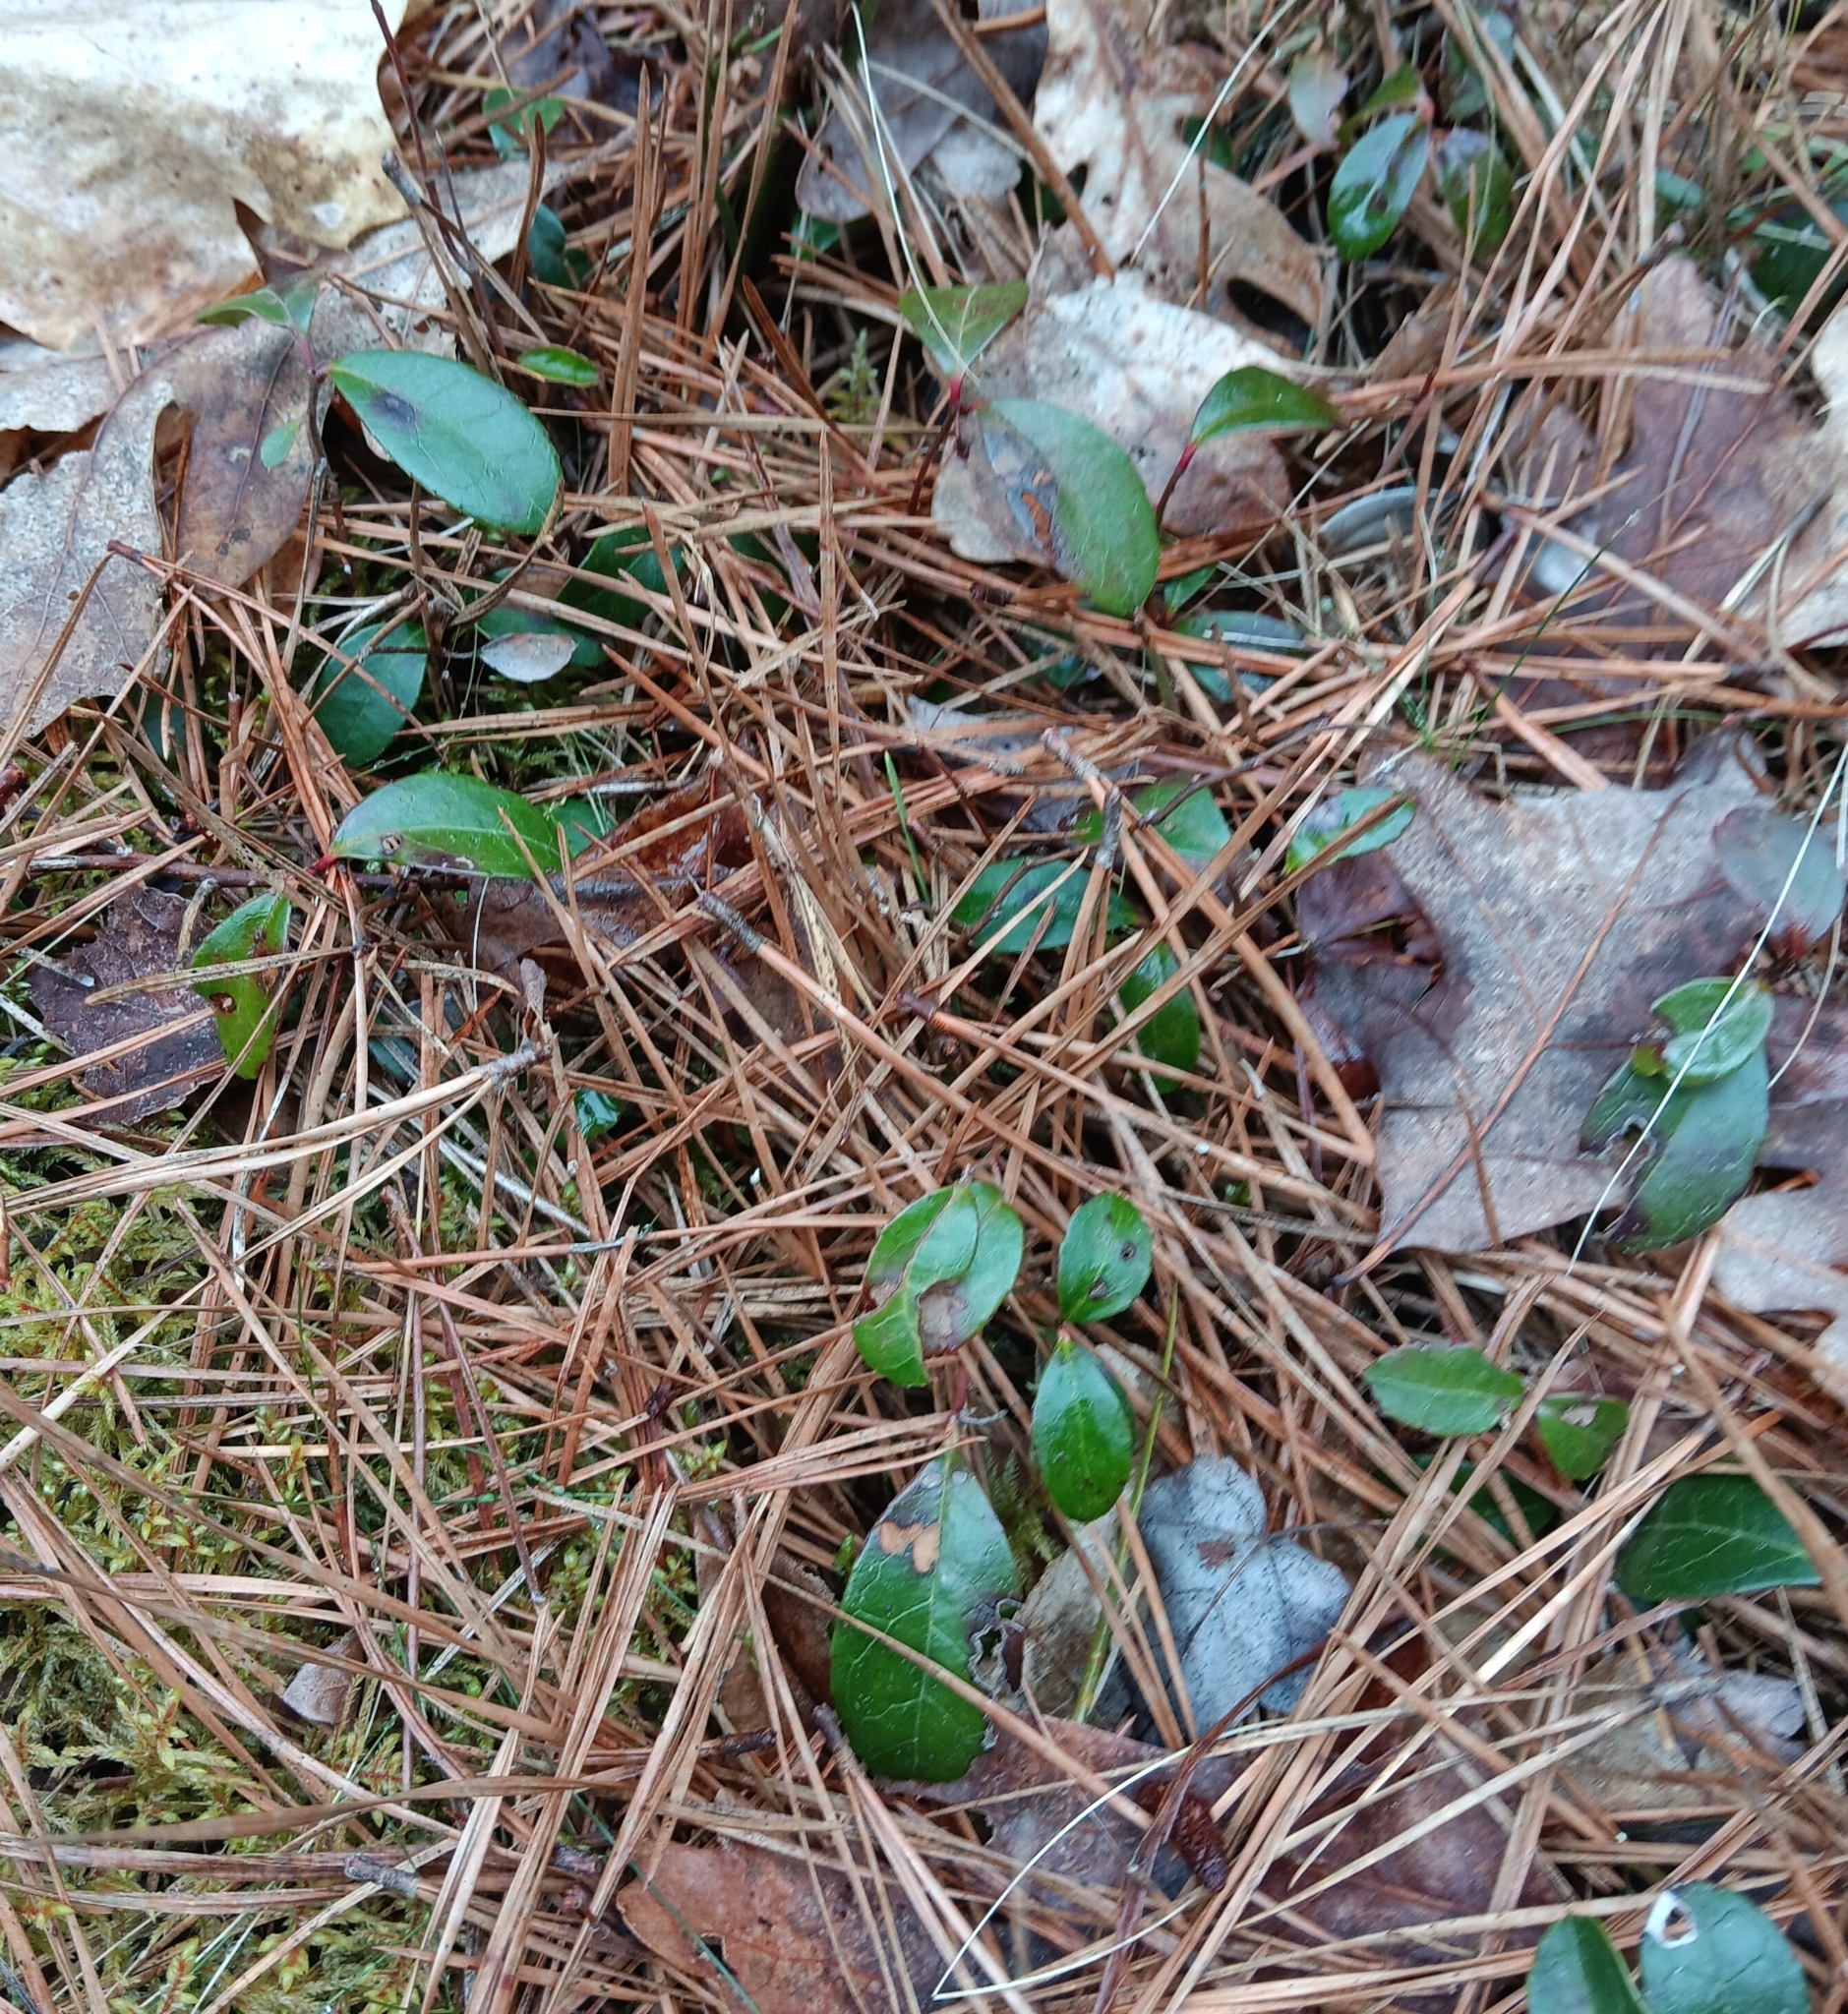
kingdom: Plantae
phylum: Tracheophyta
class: Magnoliopsida
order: Ericales
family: Ericaceae
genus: Gaultheria
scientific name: Gaultheria procumbens
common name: Checkerberry
